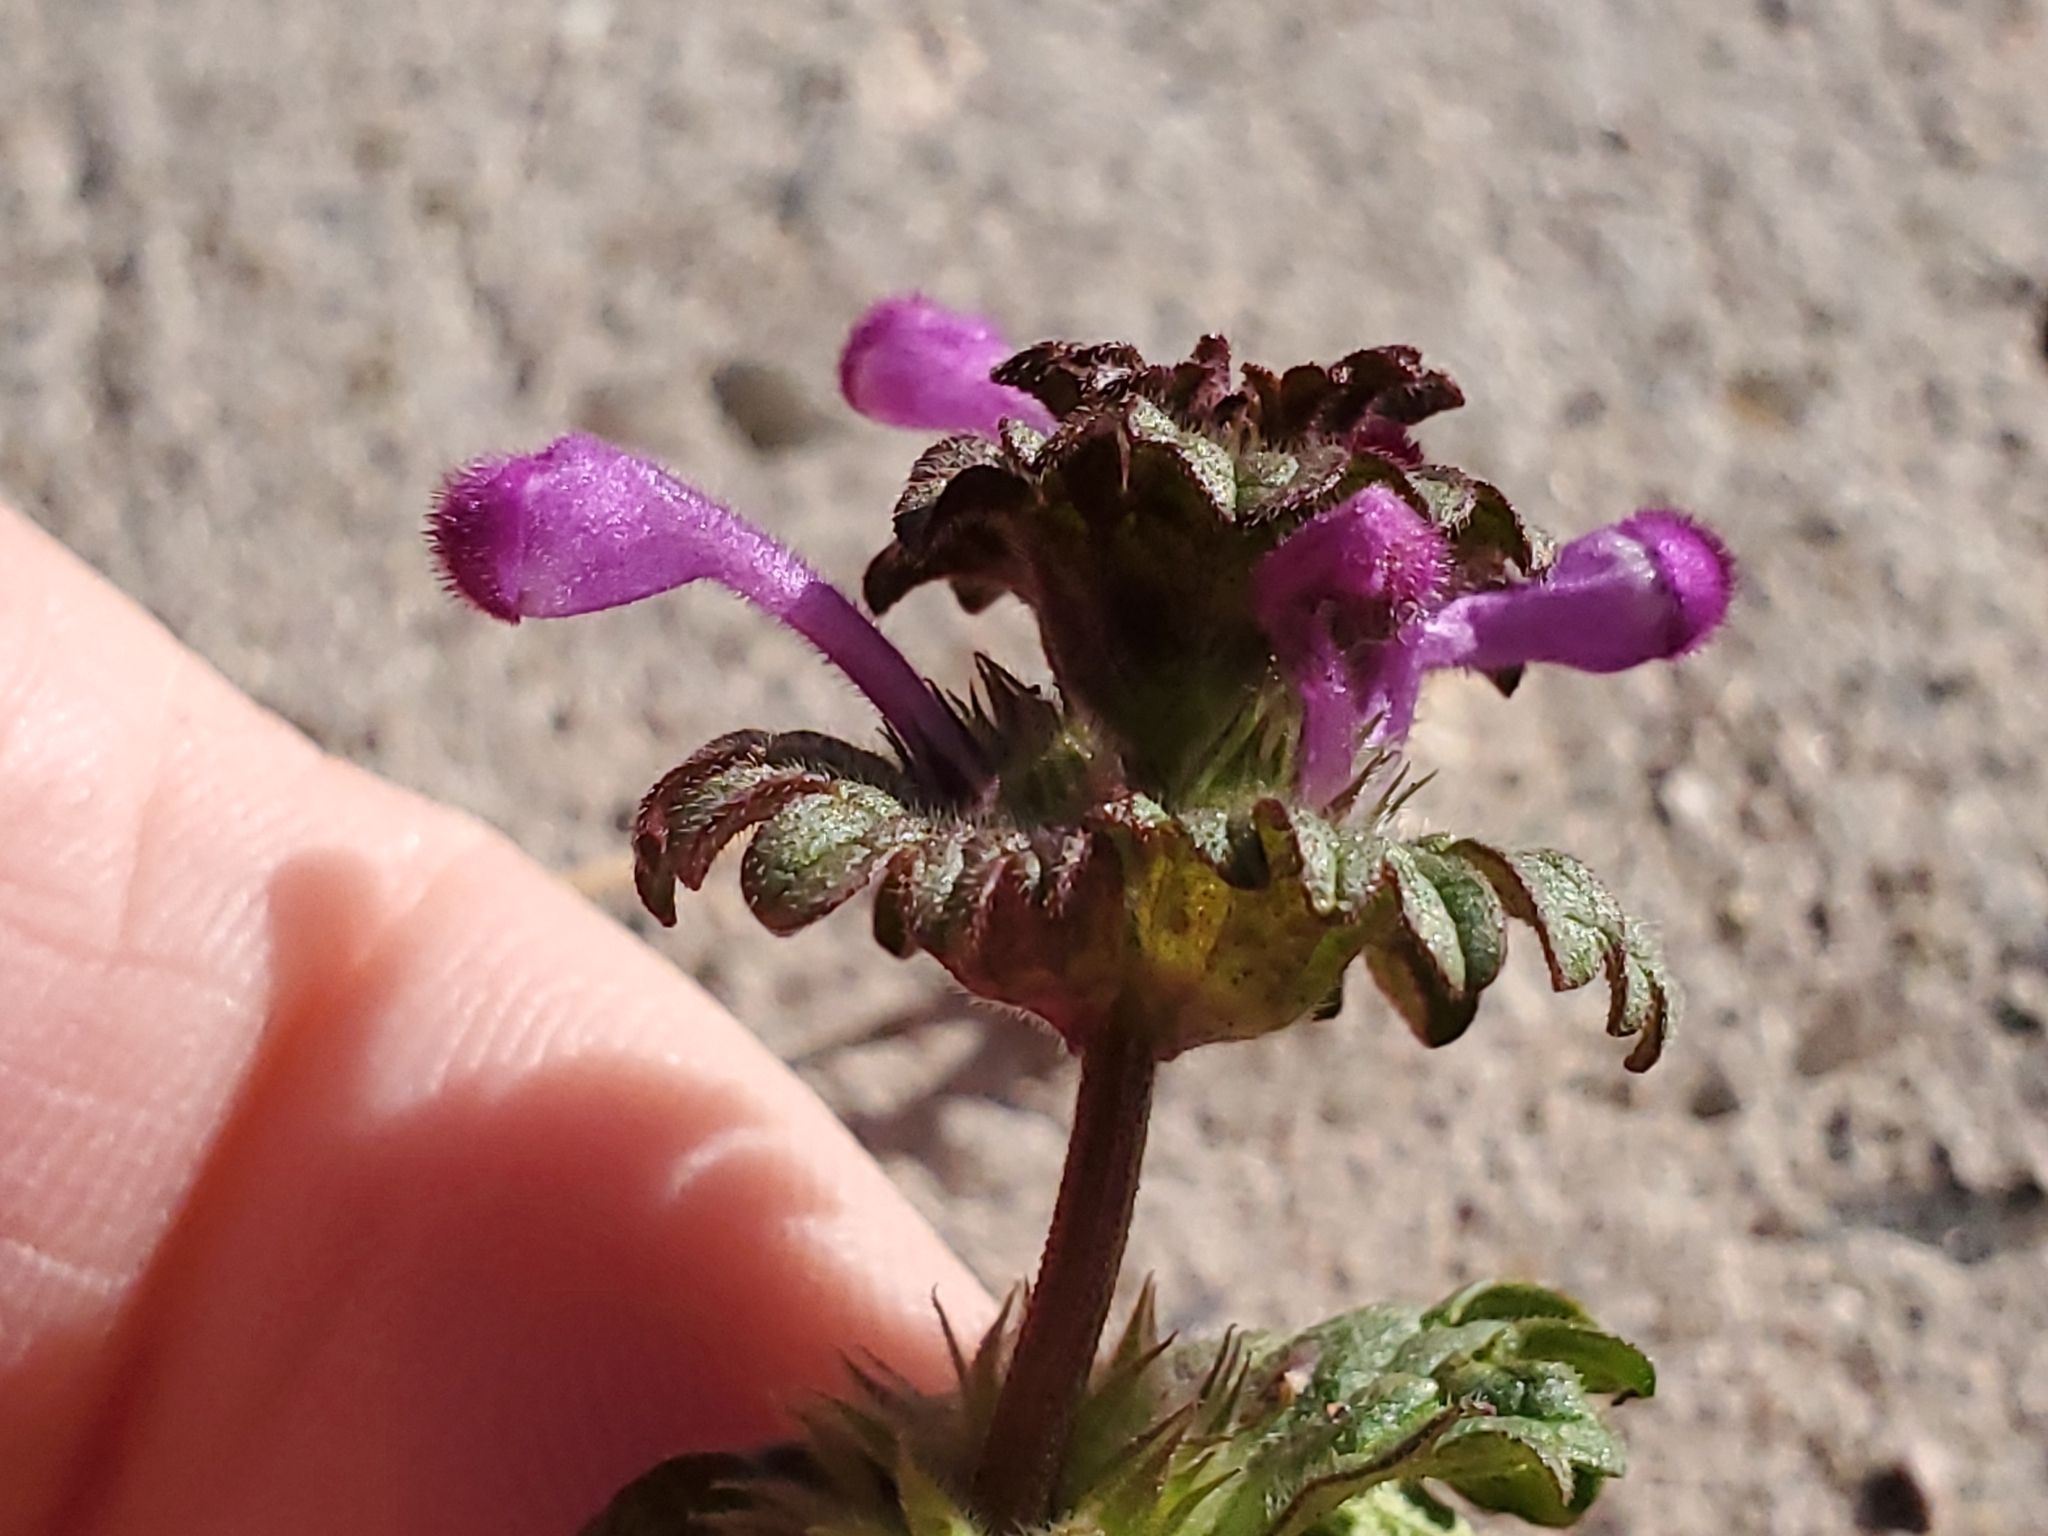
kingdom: Plantae
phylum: Tracheophyta
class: Magnoliopsida
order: Lamiales
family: Lamiaceae
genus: Lamium
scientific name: Lamium amplexicaule
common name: Henbit dead-nettle
